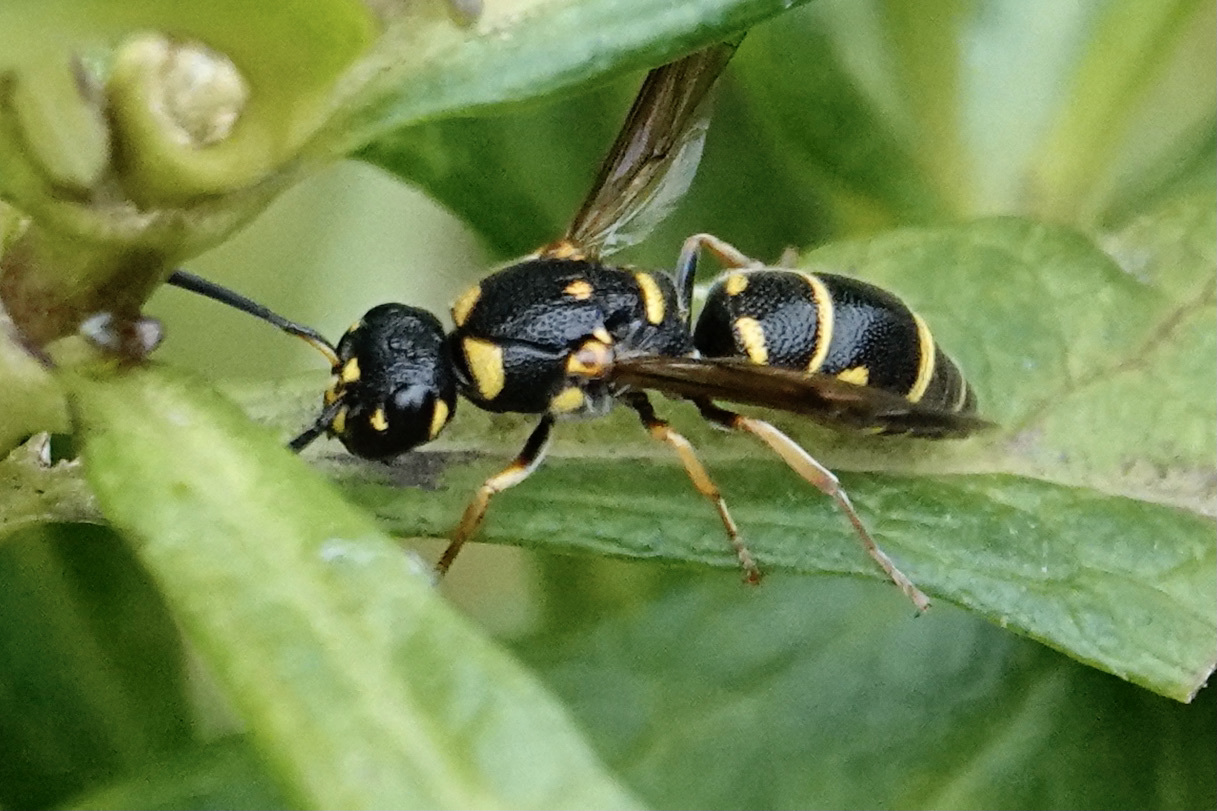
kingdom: Animalia
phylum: Arthropoda
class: Insecta
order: Hymenoptera
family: Eumenidae
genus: Parancistrocerus
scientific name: Parancistrocerus pedestris
